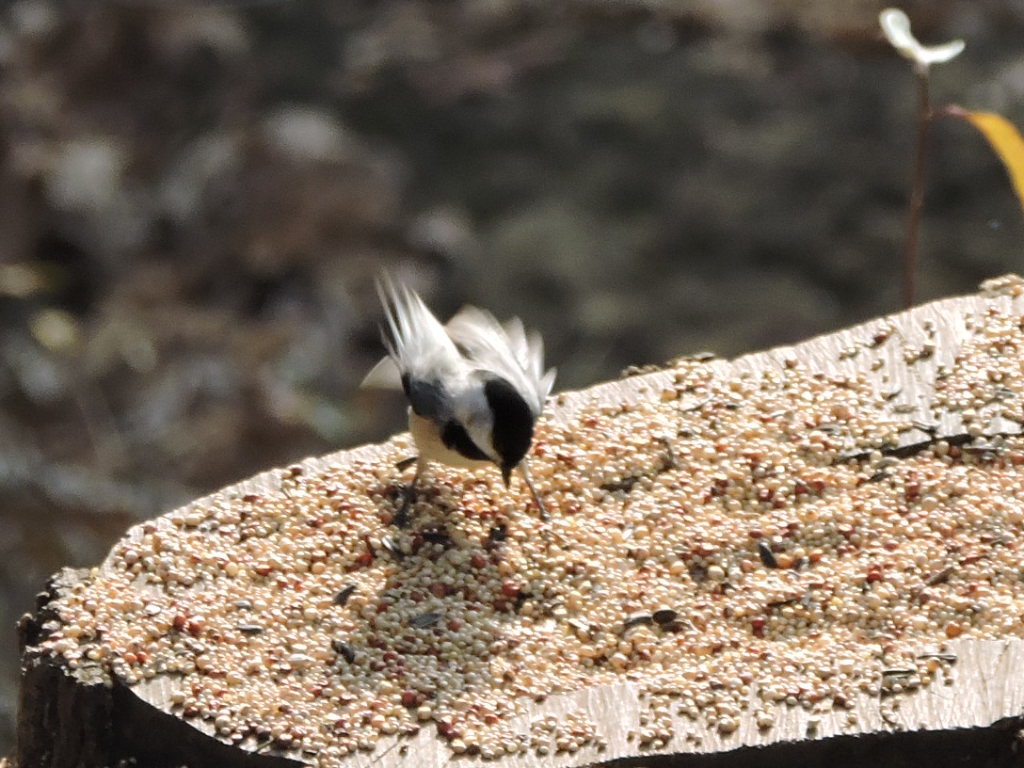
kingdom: Animalia
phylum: Chordata
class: Aves
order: Passeriformes
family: Paridae
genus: Poecile
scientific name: Poecile carolinensis
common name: Carolina chickadee
